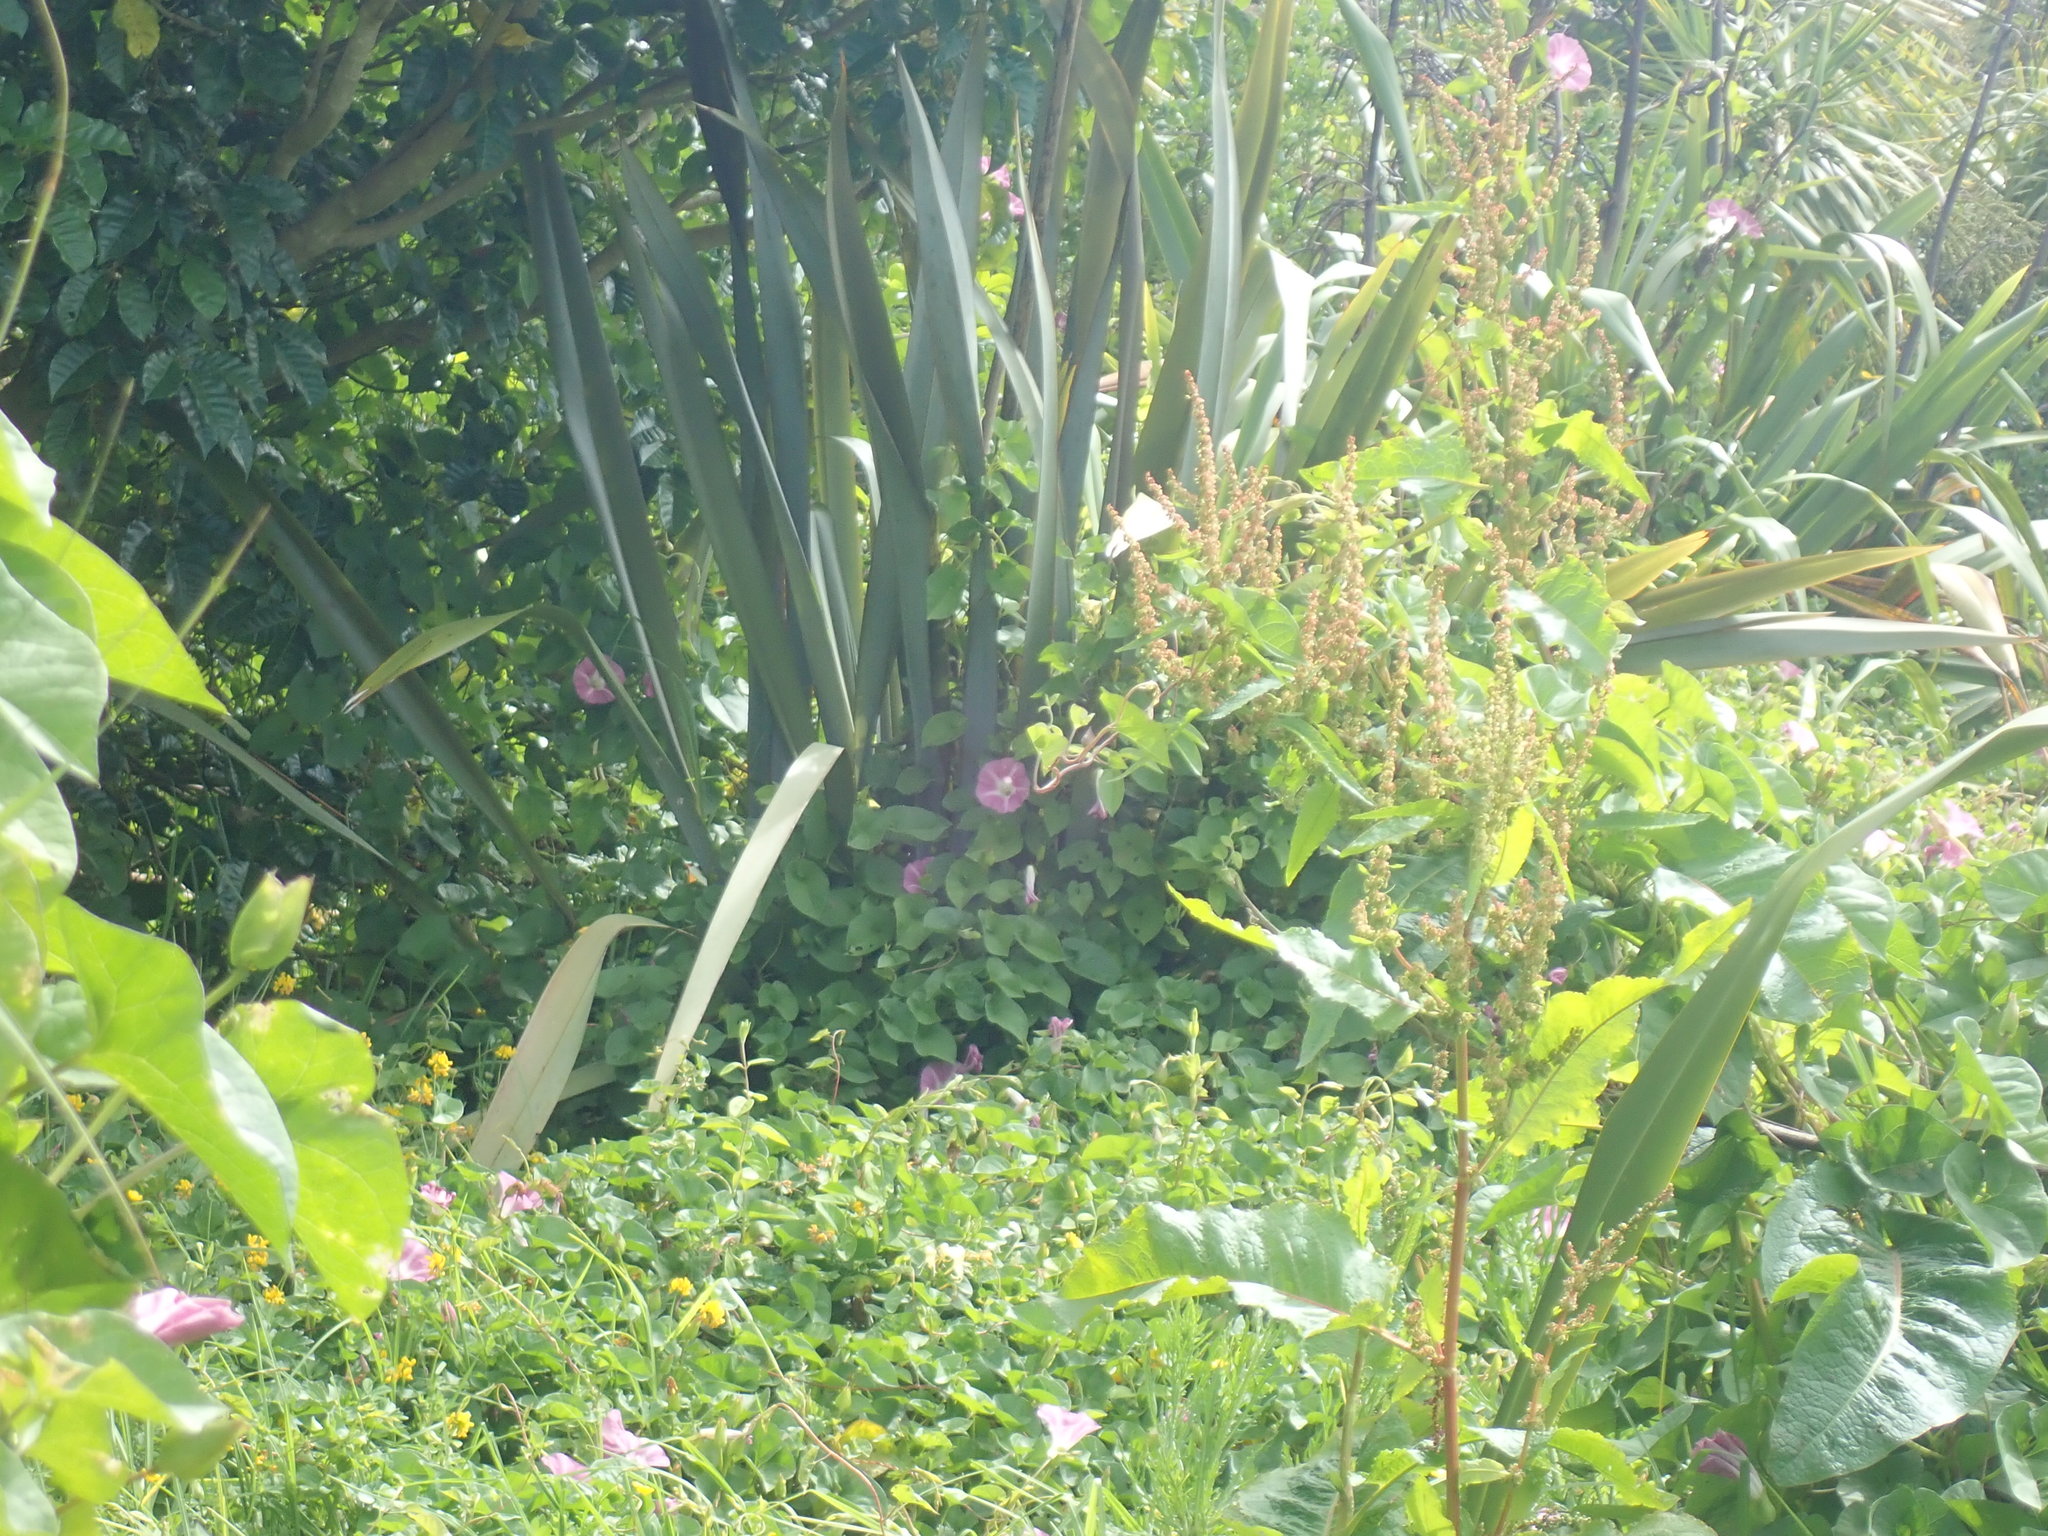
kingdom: Plantae
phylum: Tracheophyta
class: Magnoliopsida
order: Solanales
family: Convolvulaceae
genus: Calystegia
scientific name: Calystegia sepium
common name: Hedge bindweed
